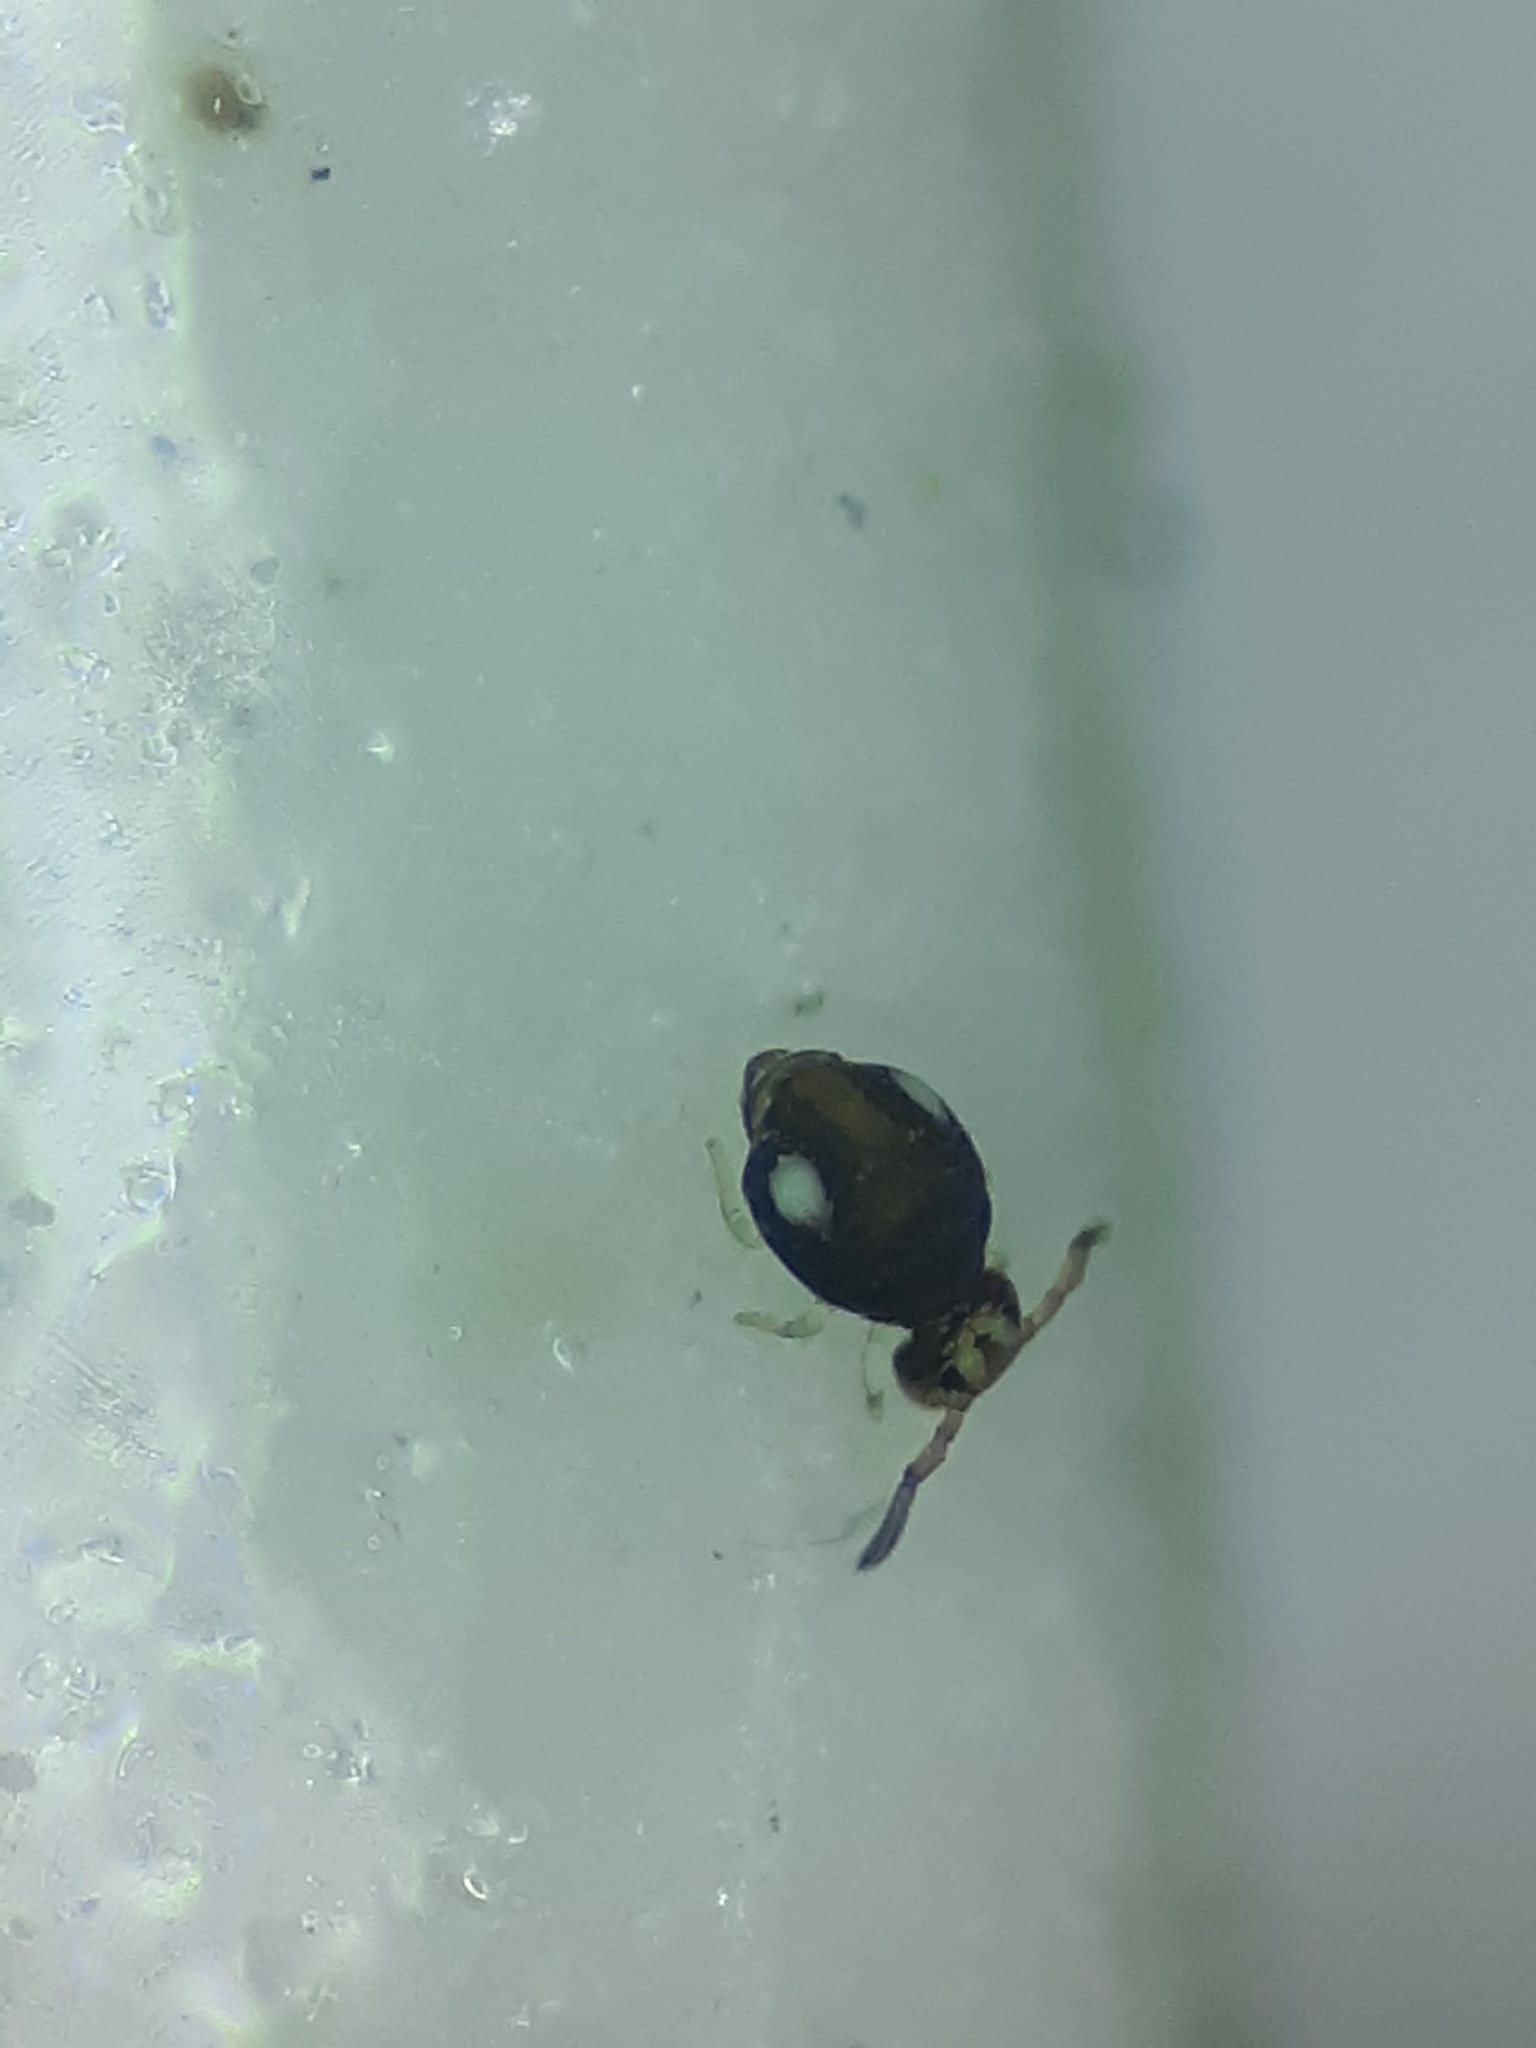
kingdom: Animalia
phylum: Arthropoda
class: Collembola
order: Symphypleona
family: Katiannidae
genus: Sminthurinus
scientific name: Sminthurinus quadrimaculatus
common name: Globular springtail
